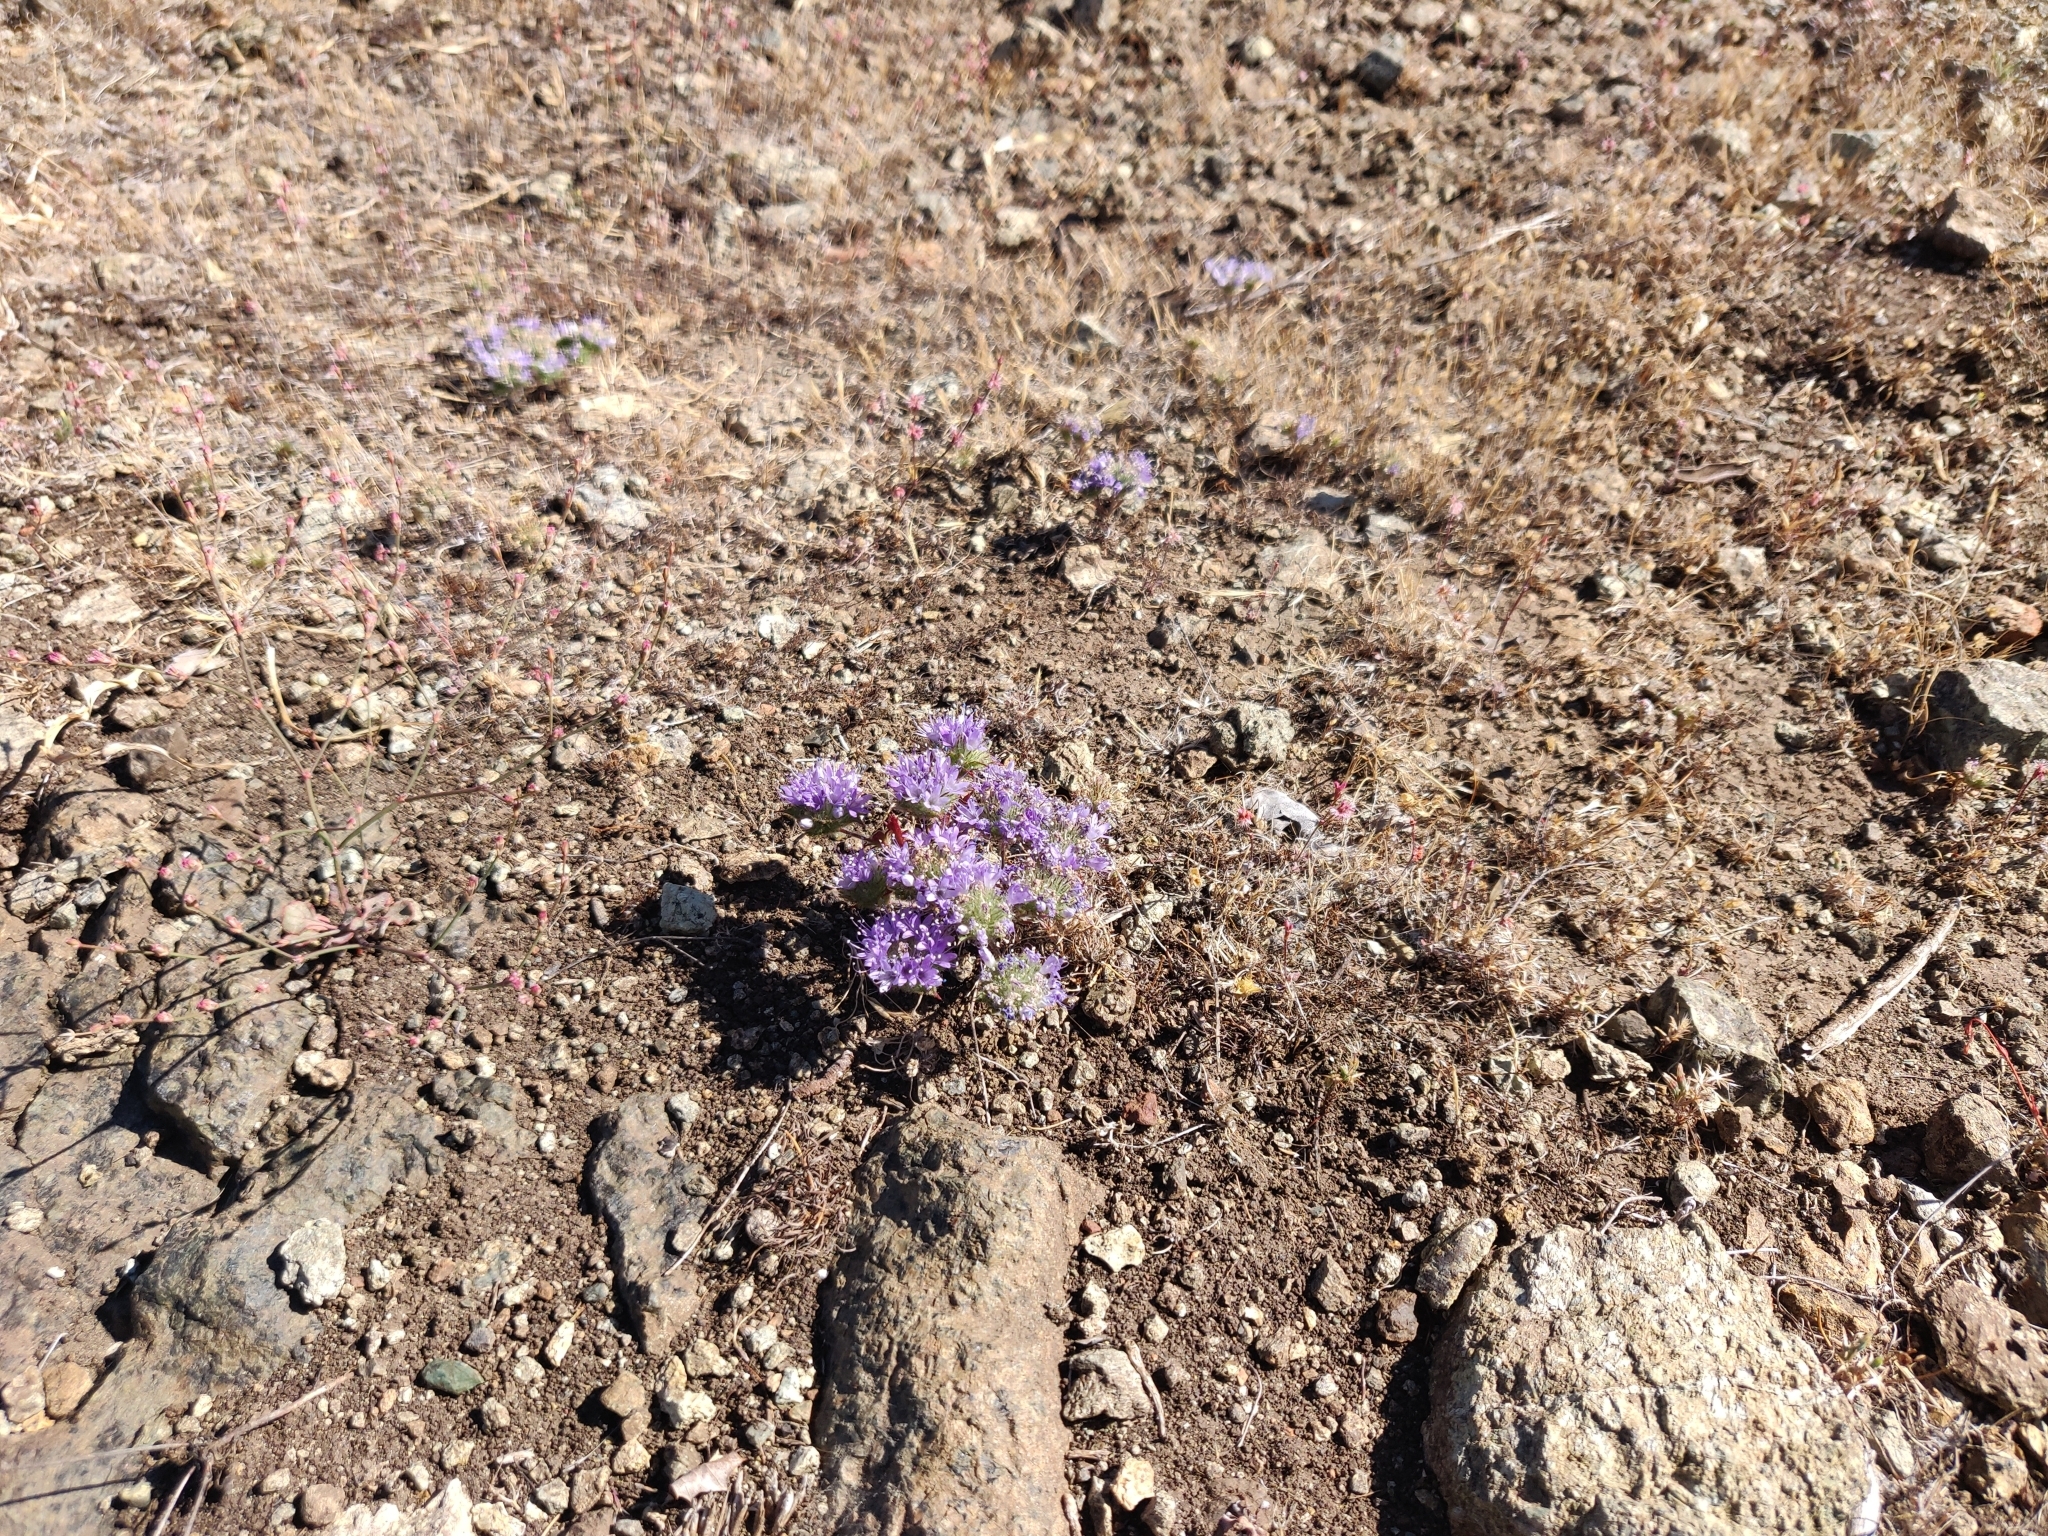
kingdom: Plantae
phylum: Tracheophyta
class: Magnoliopsida
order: Ericales
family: Polemoniaceae
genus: Navarretia
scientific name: Navarretia heterodoxa
